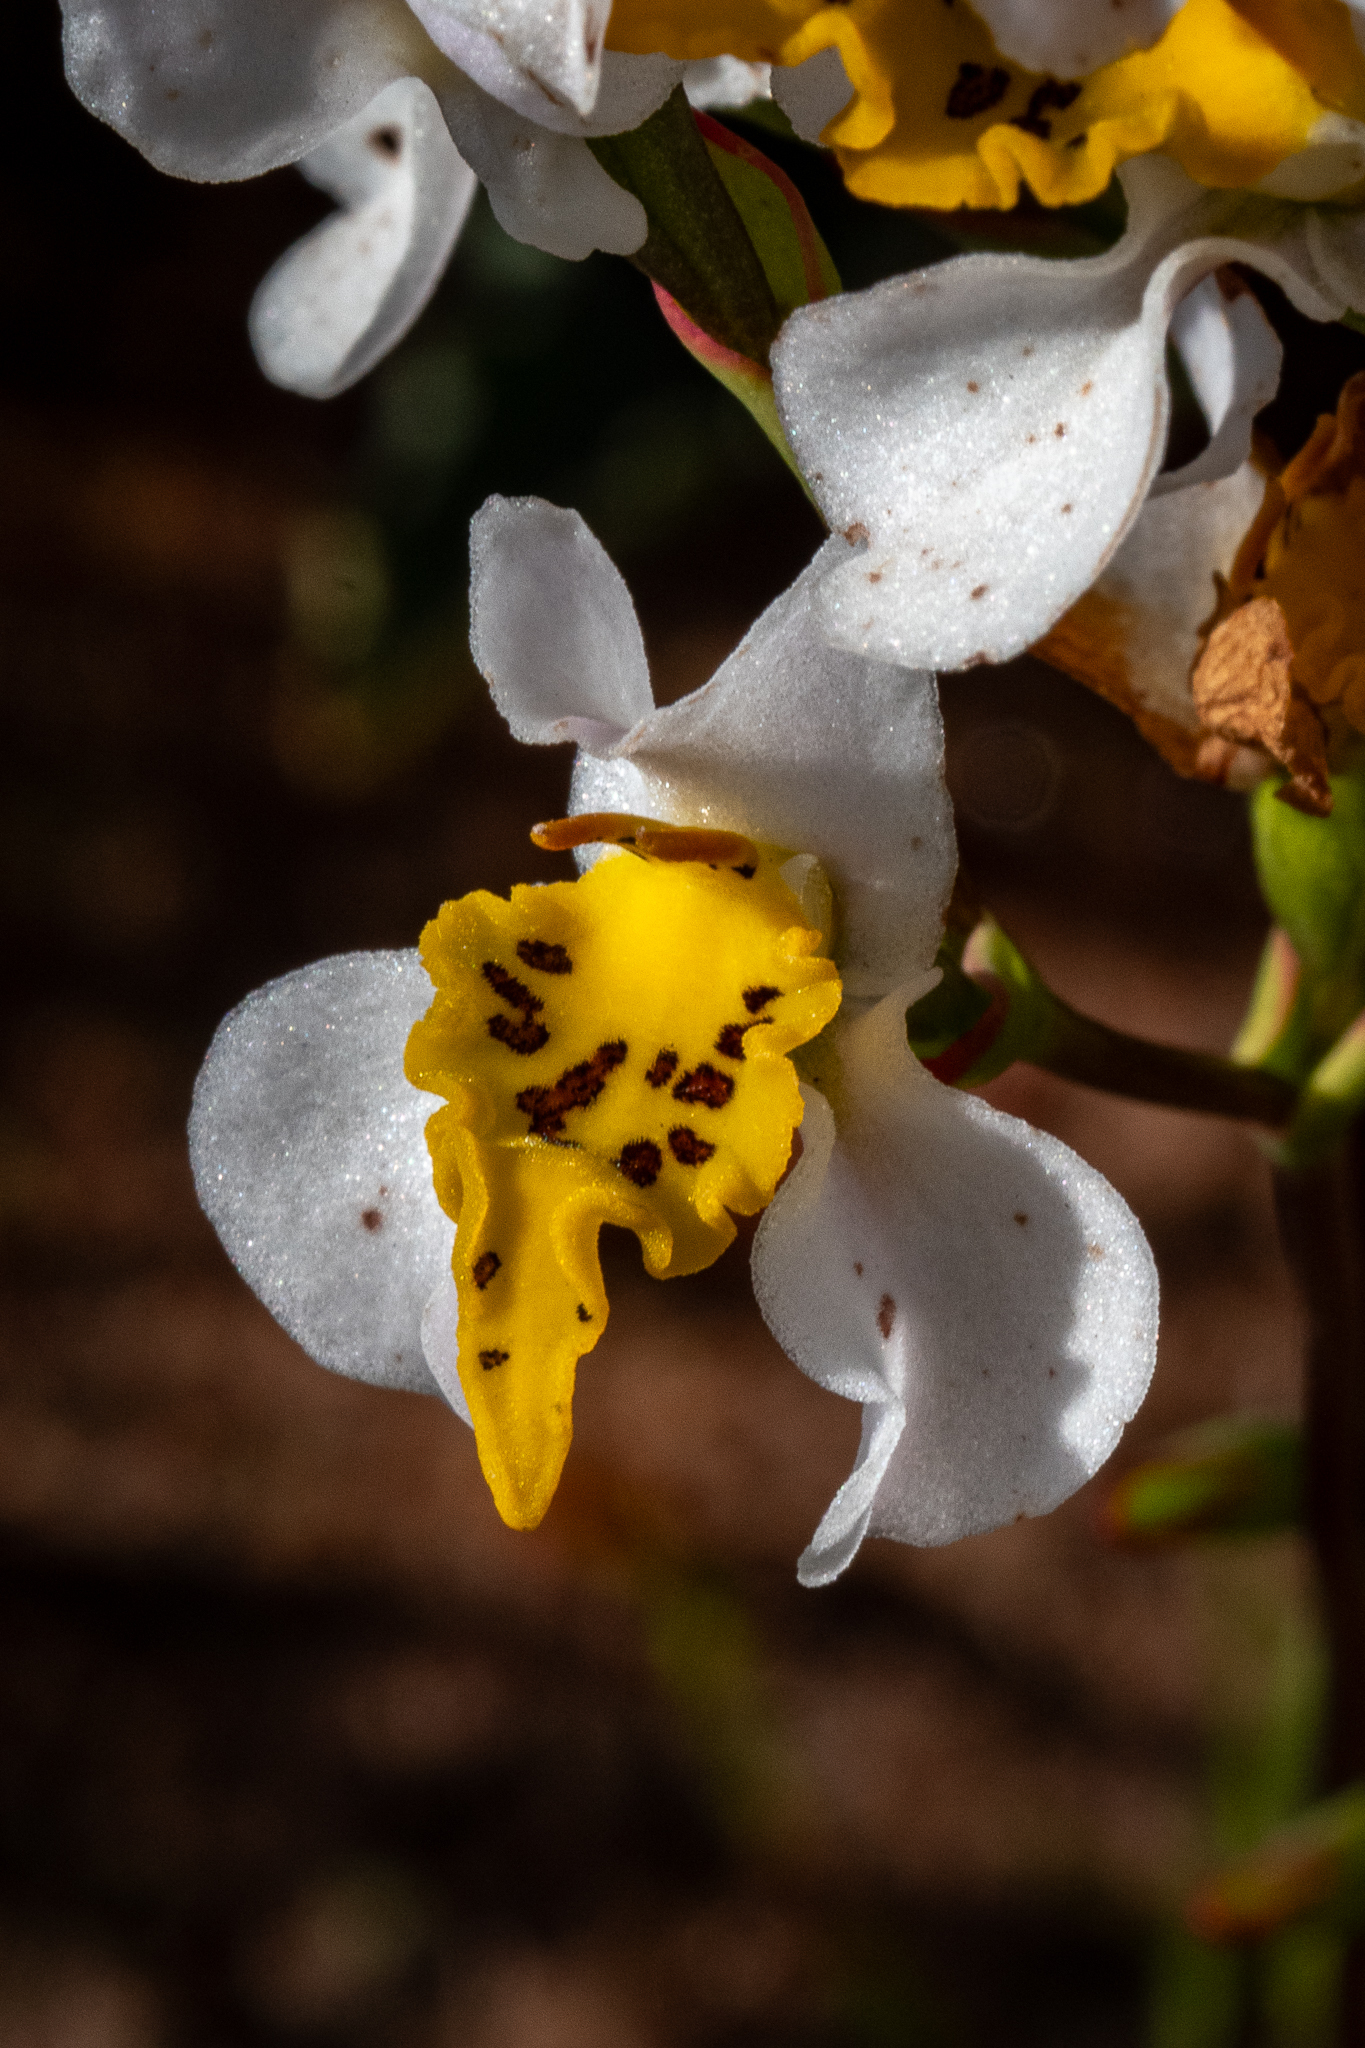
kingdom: Plantae
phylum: Tracheophyta
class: Liliopsida
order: Asparagales
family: Orchidaceae
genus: Disa
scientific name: Disa flexuosa
